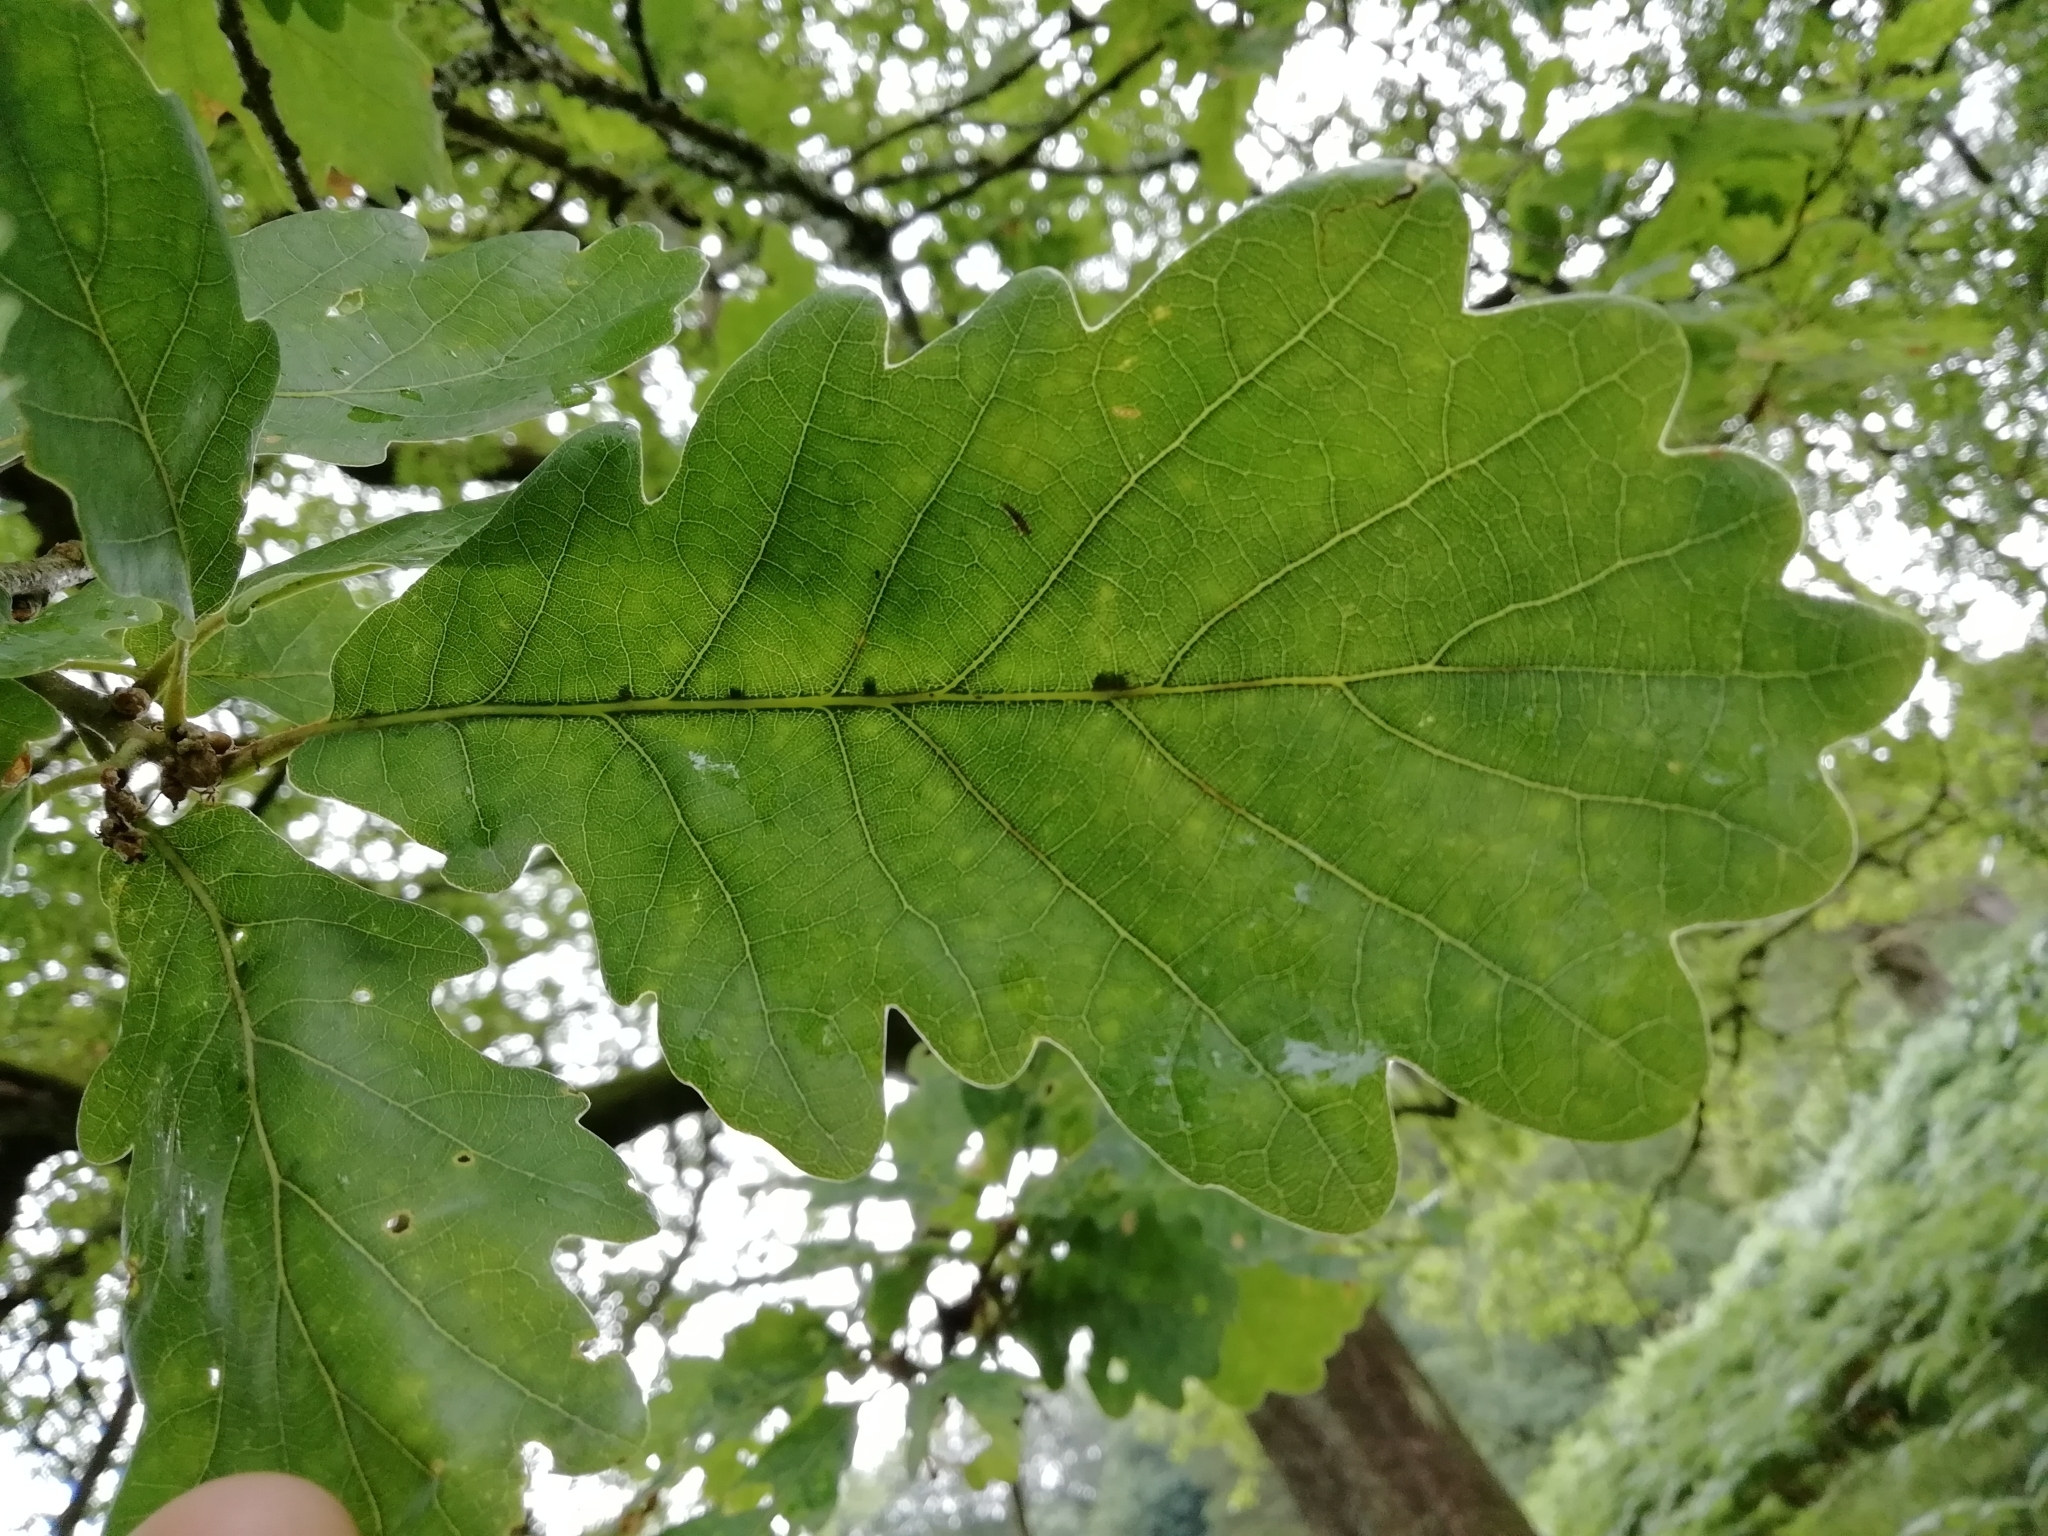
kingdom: Plantae
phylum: Tracheophyta
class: Magnoliopsida
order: Fagales
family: Fagaceae
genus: Quercus
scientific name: Quercus robur
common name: Pedunculate oak
